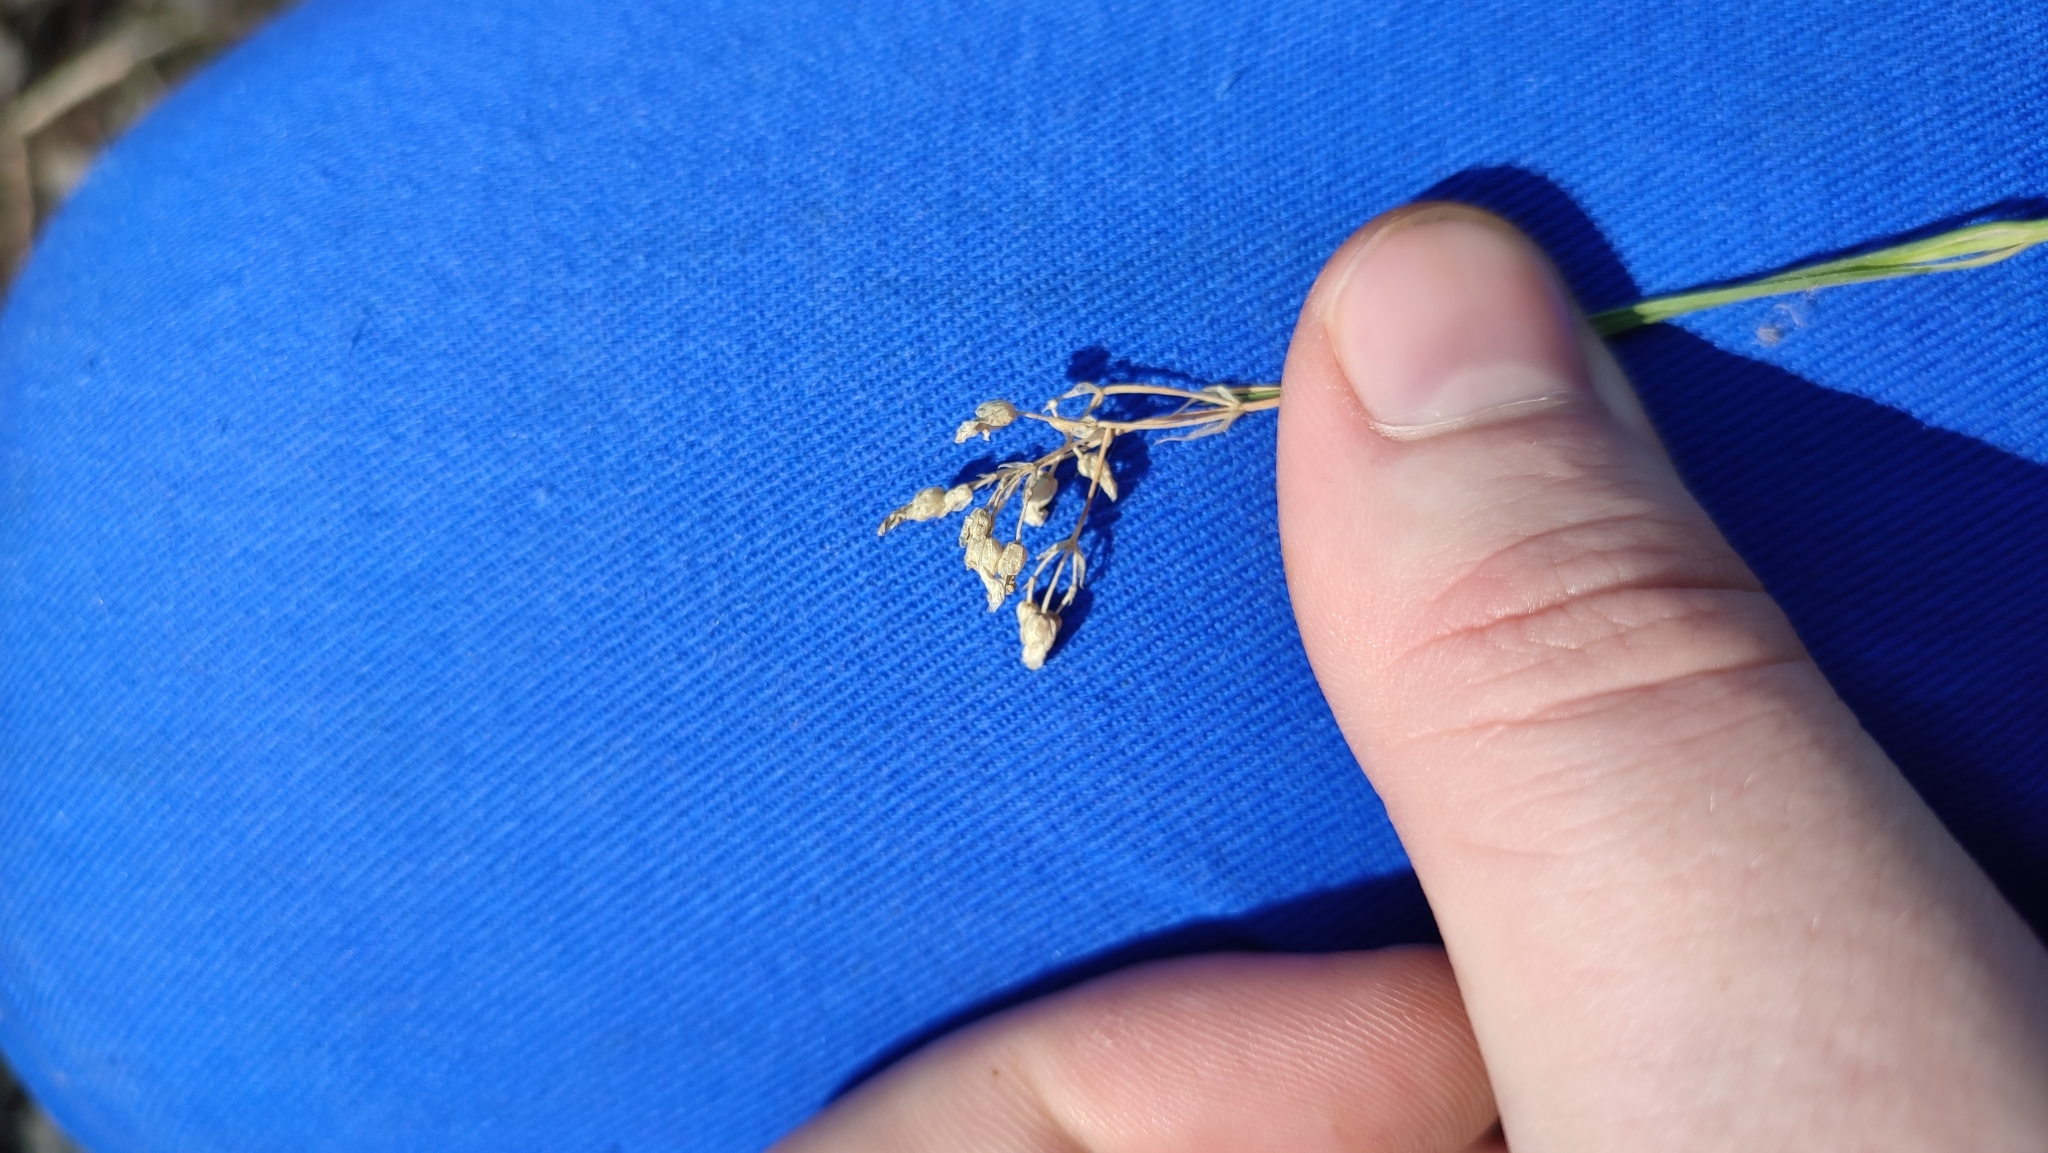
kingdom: Plantae
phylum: Tracheophyta
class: Magnoliopsida
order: Caryophyllales
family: Caryophyllaceae
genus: Eremogone
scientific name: Eremogone saxatilis
